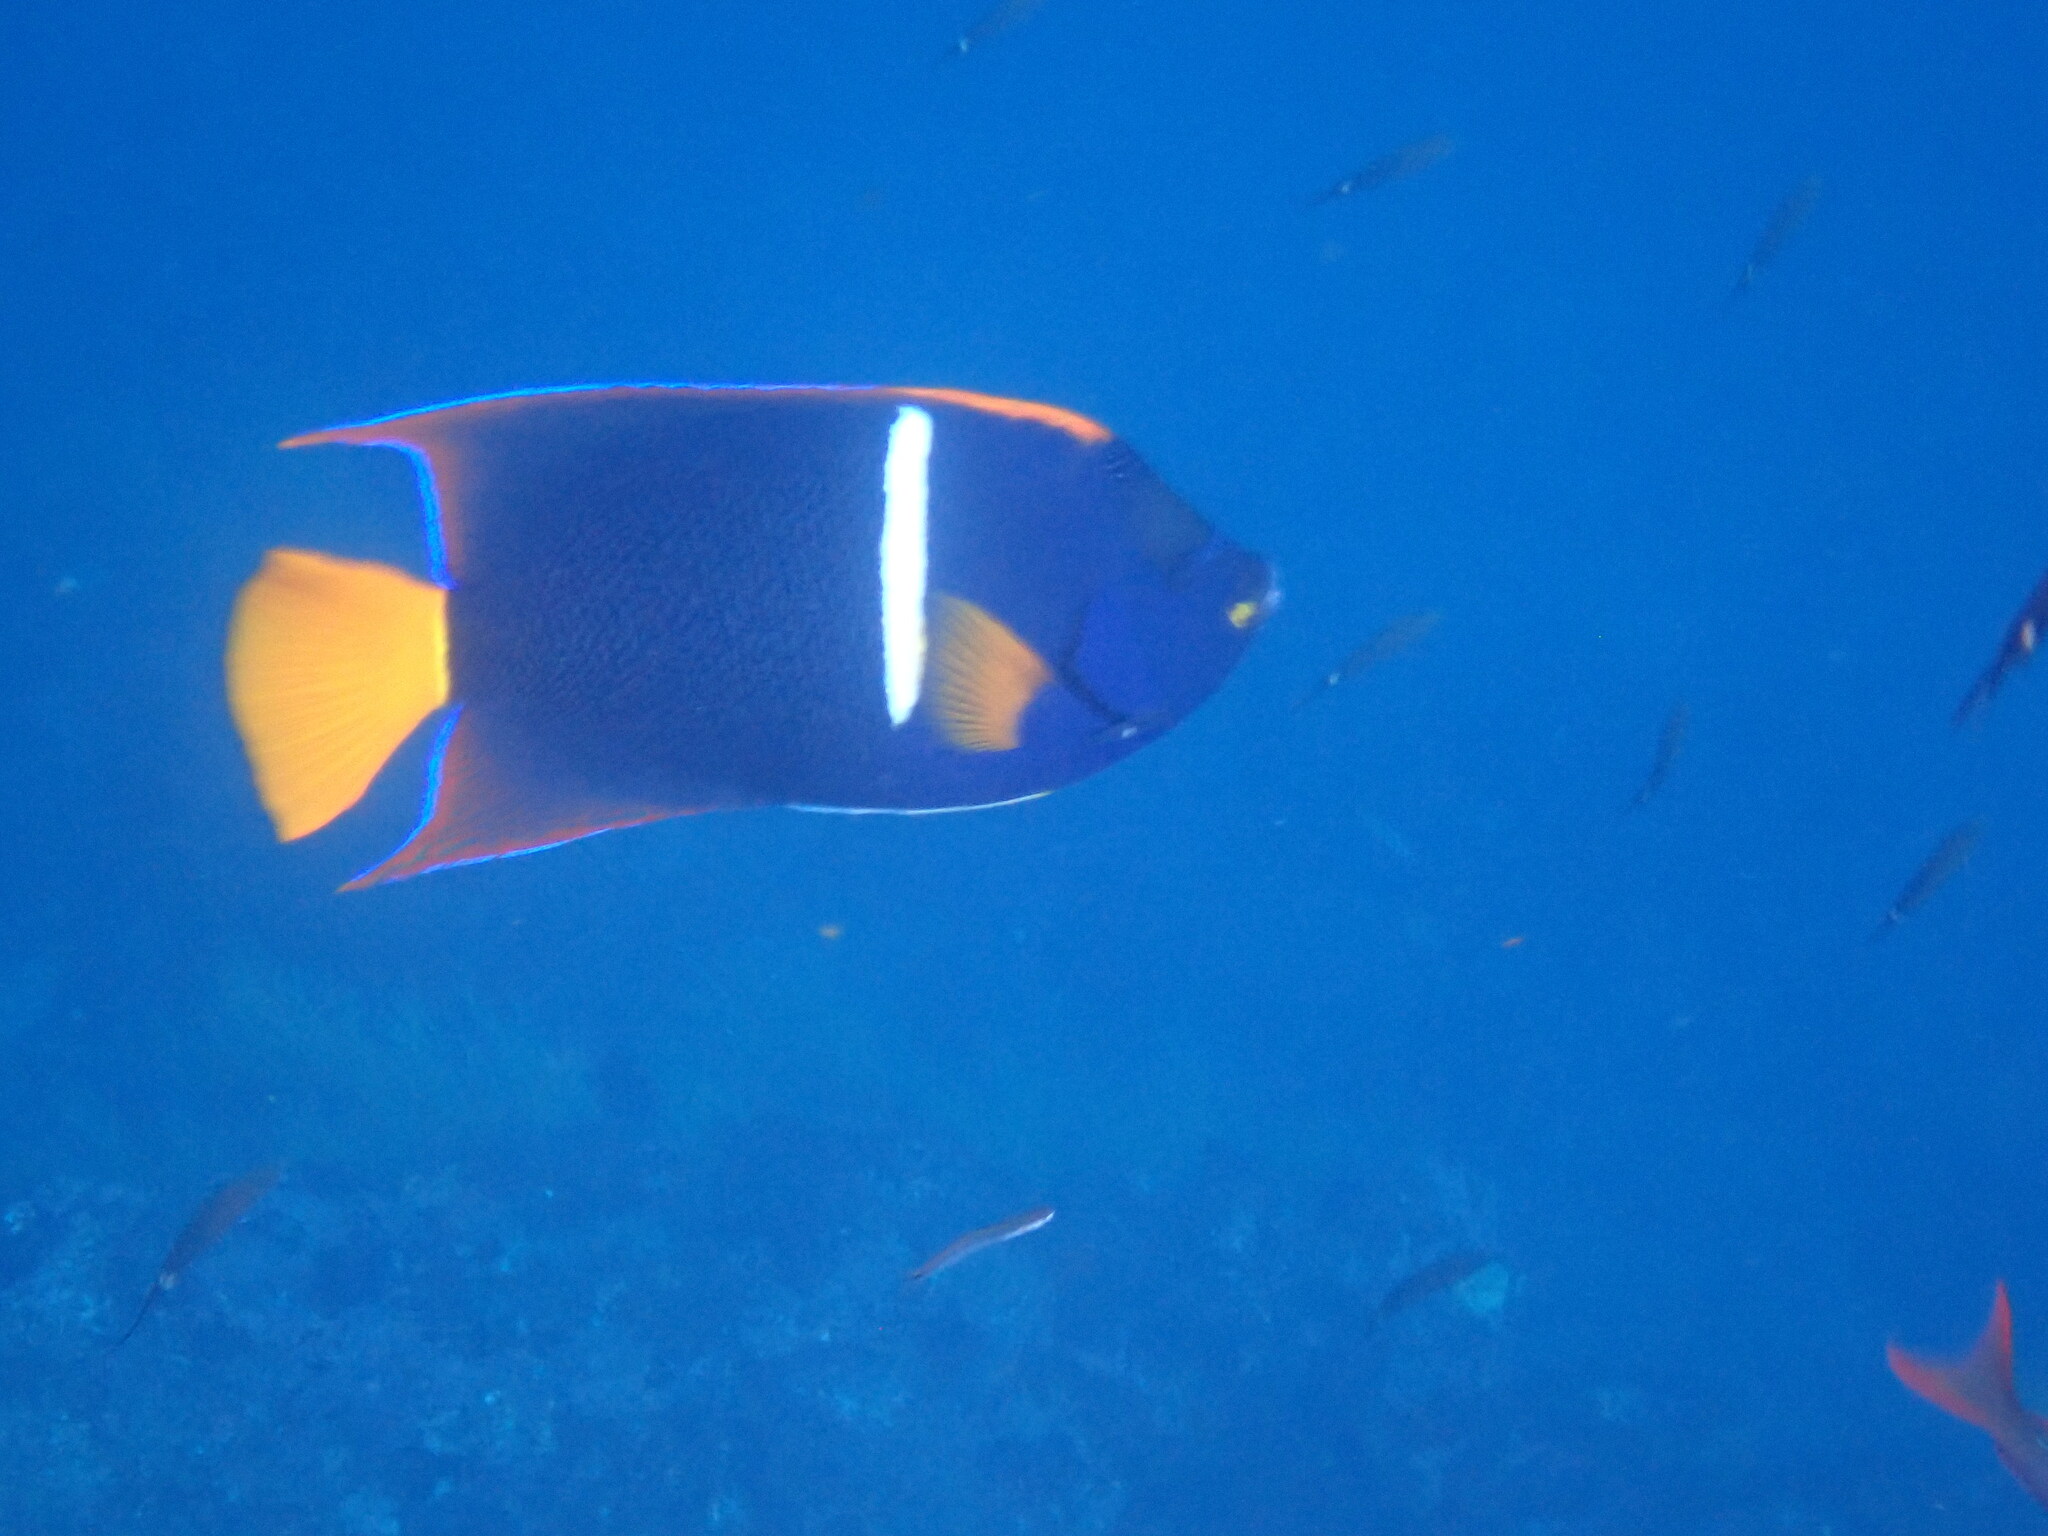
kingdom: Animalia
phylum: Chordata
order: Perciformes
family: Pomacanthidae
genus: Holacanthus
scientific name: Holacanthus passer
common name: King angelfish
